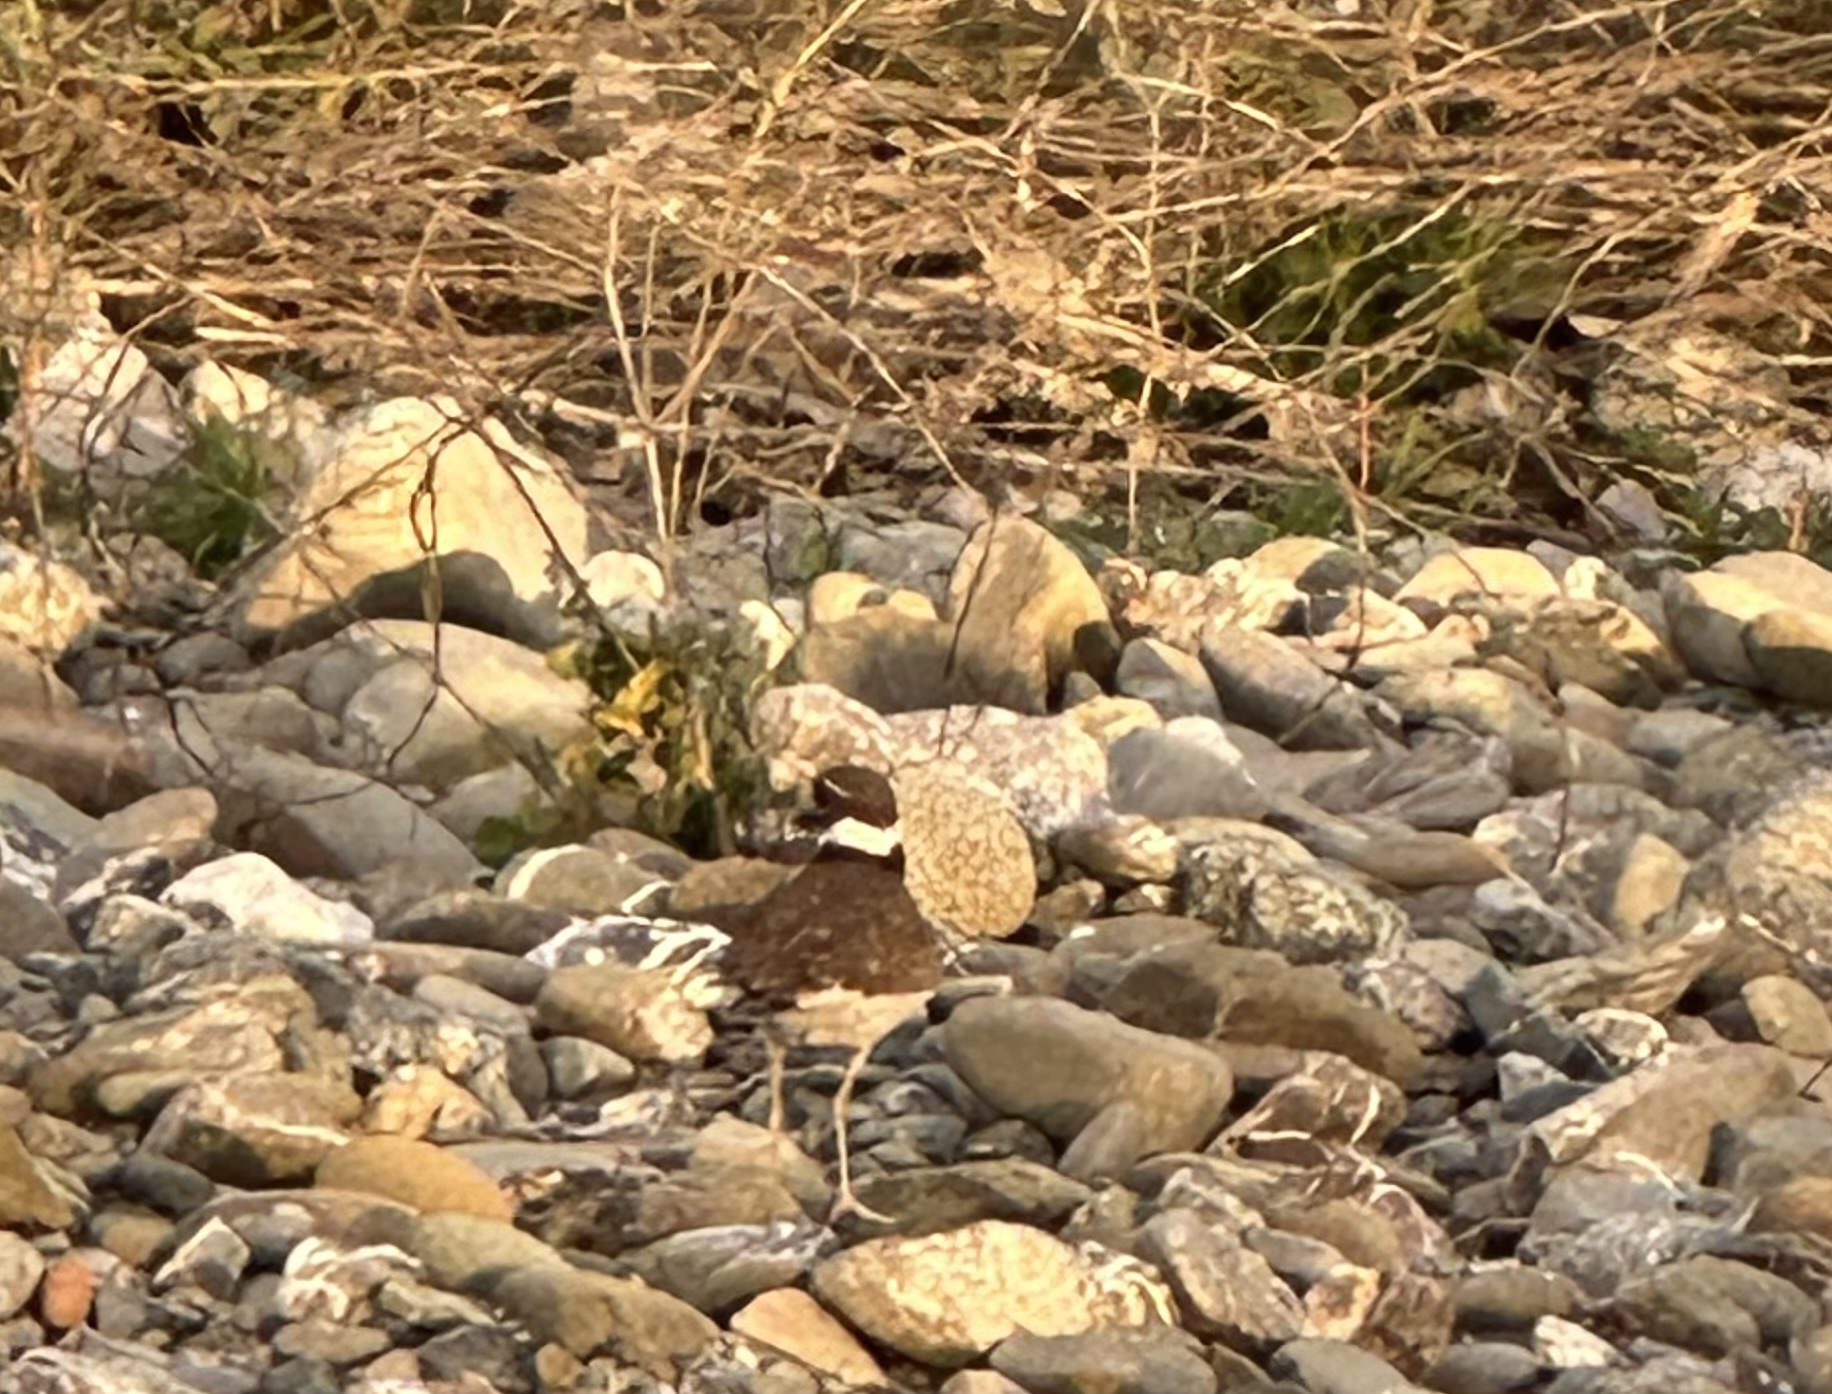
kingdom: Animalia
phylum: Chordata
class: Aves
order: Charadriiformes
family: Charadriidae
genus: Charadrius
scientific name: Charadrius vociferus
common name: Killdeer
